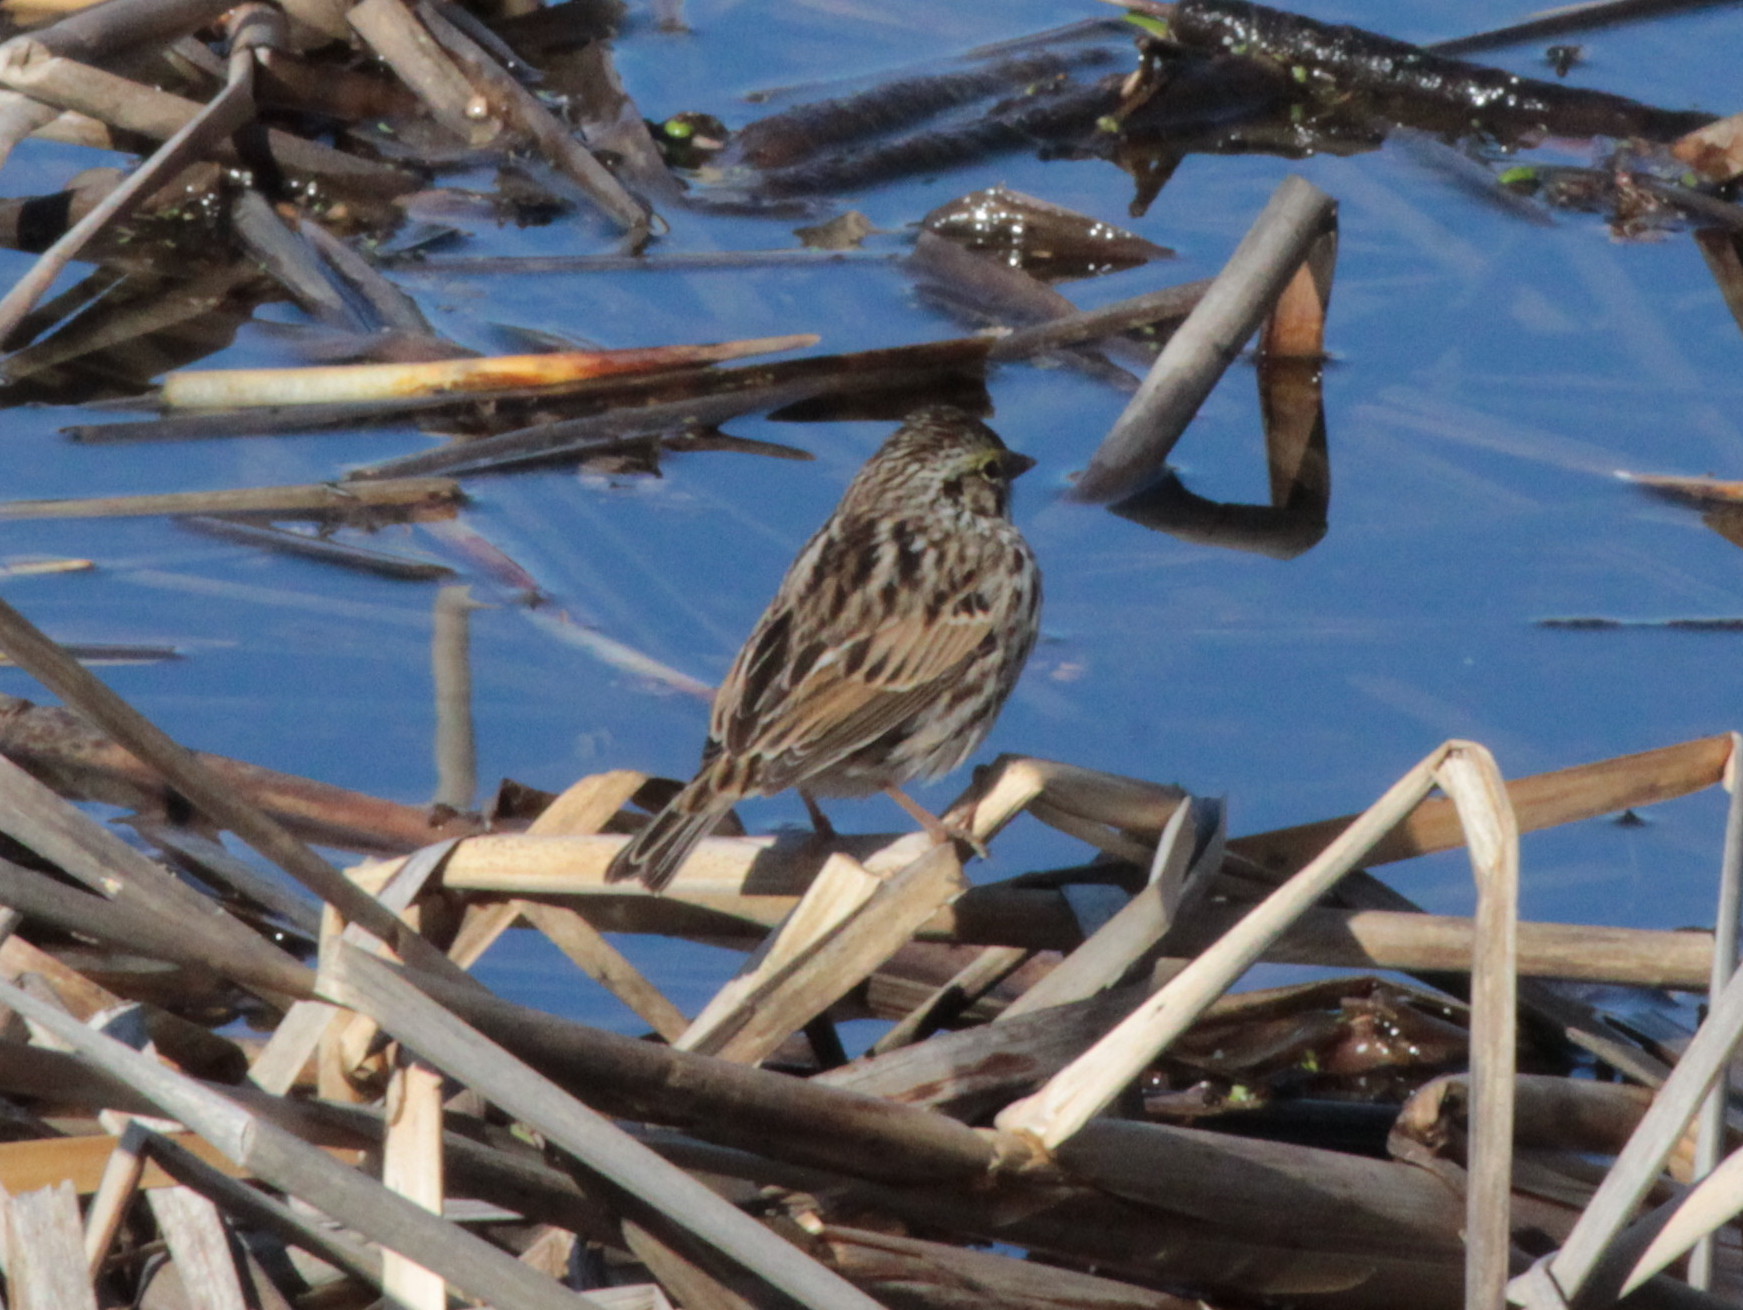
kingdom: Animalia
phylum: Chordata
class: Aves
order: Passeriformes
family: Passerellidae
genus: Passerculus
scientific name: Passerculus sandwichensis
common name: Savannah sparrow
